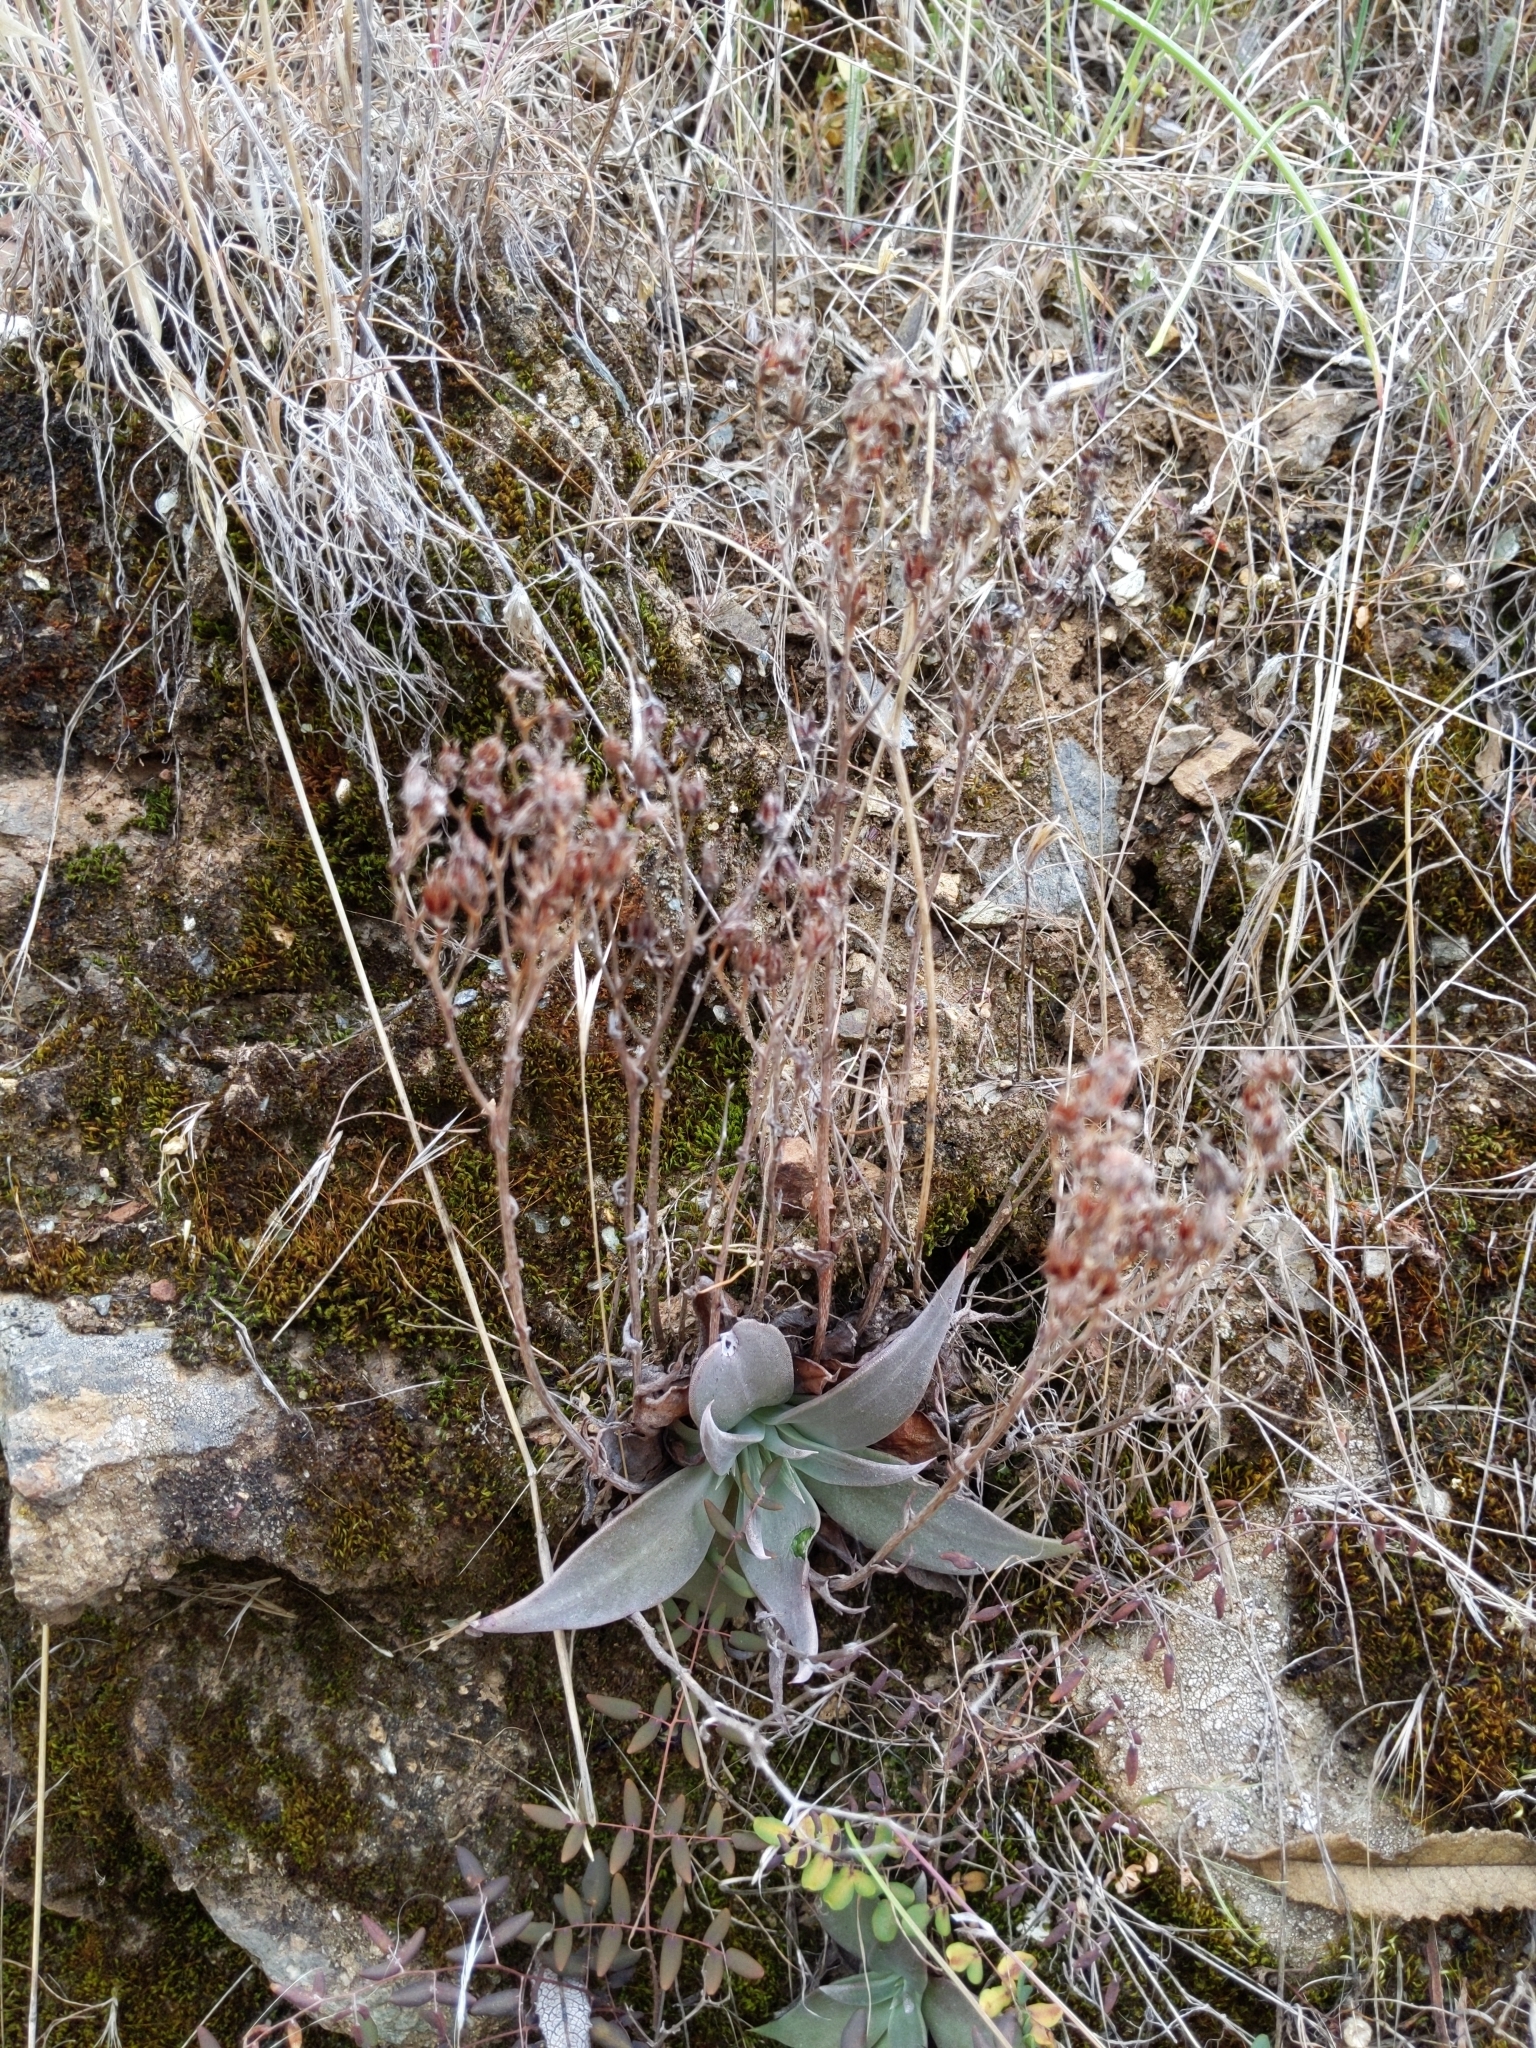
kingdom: Plantae
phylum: Tracheophyta
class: Magnoliopsida
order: Saxifragales
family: Crassulaceae
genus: Dudleya
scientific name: Dudleya cymosa
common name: Canyon dudleya
